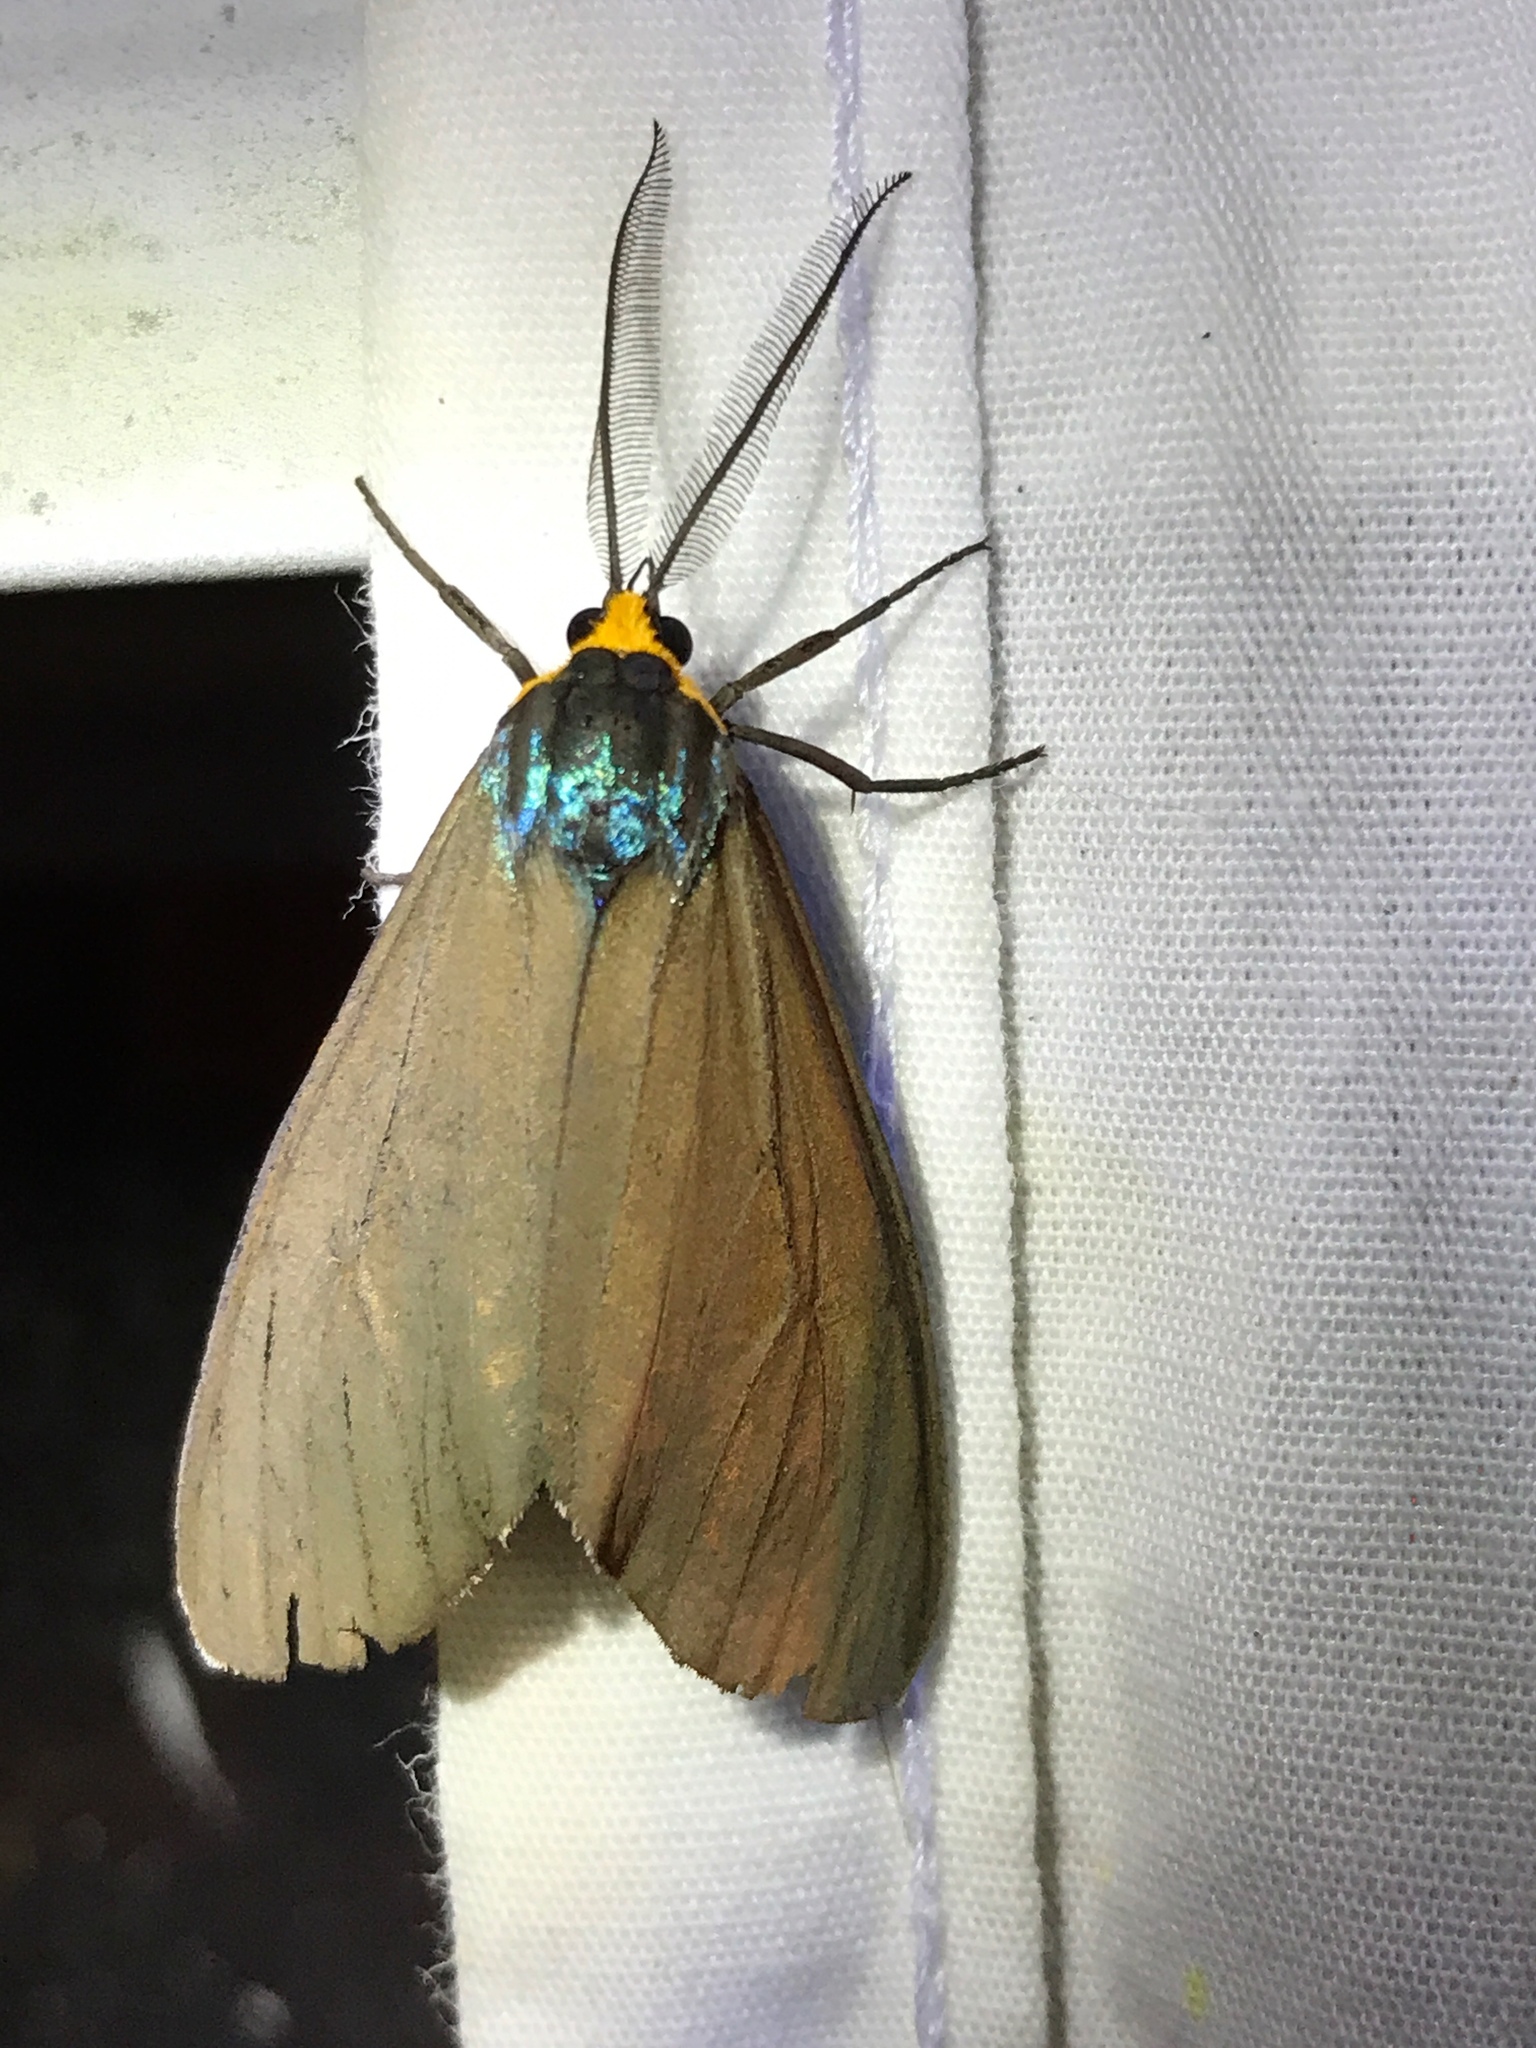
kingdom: Animalia
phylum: Arthropoda
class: Insecta
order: Lepidoptera
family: Erebidae
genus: Ctenucha
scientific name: Ctenucha virginica
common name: Virginia ctenucha moth
